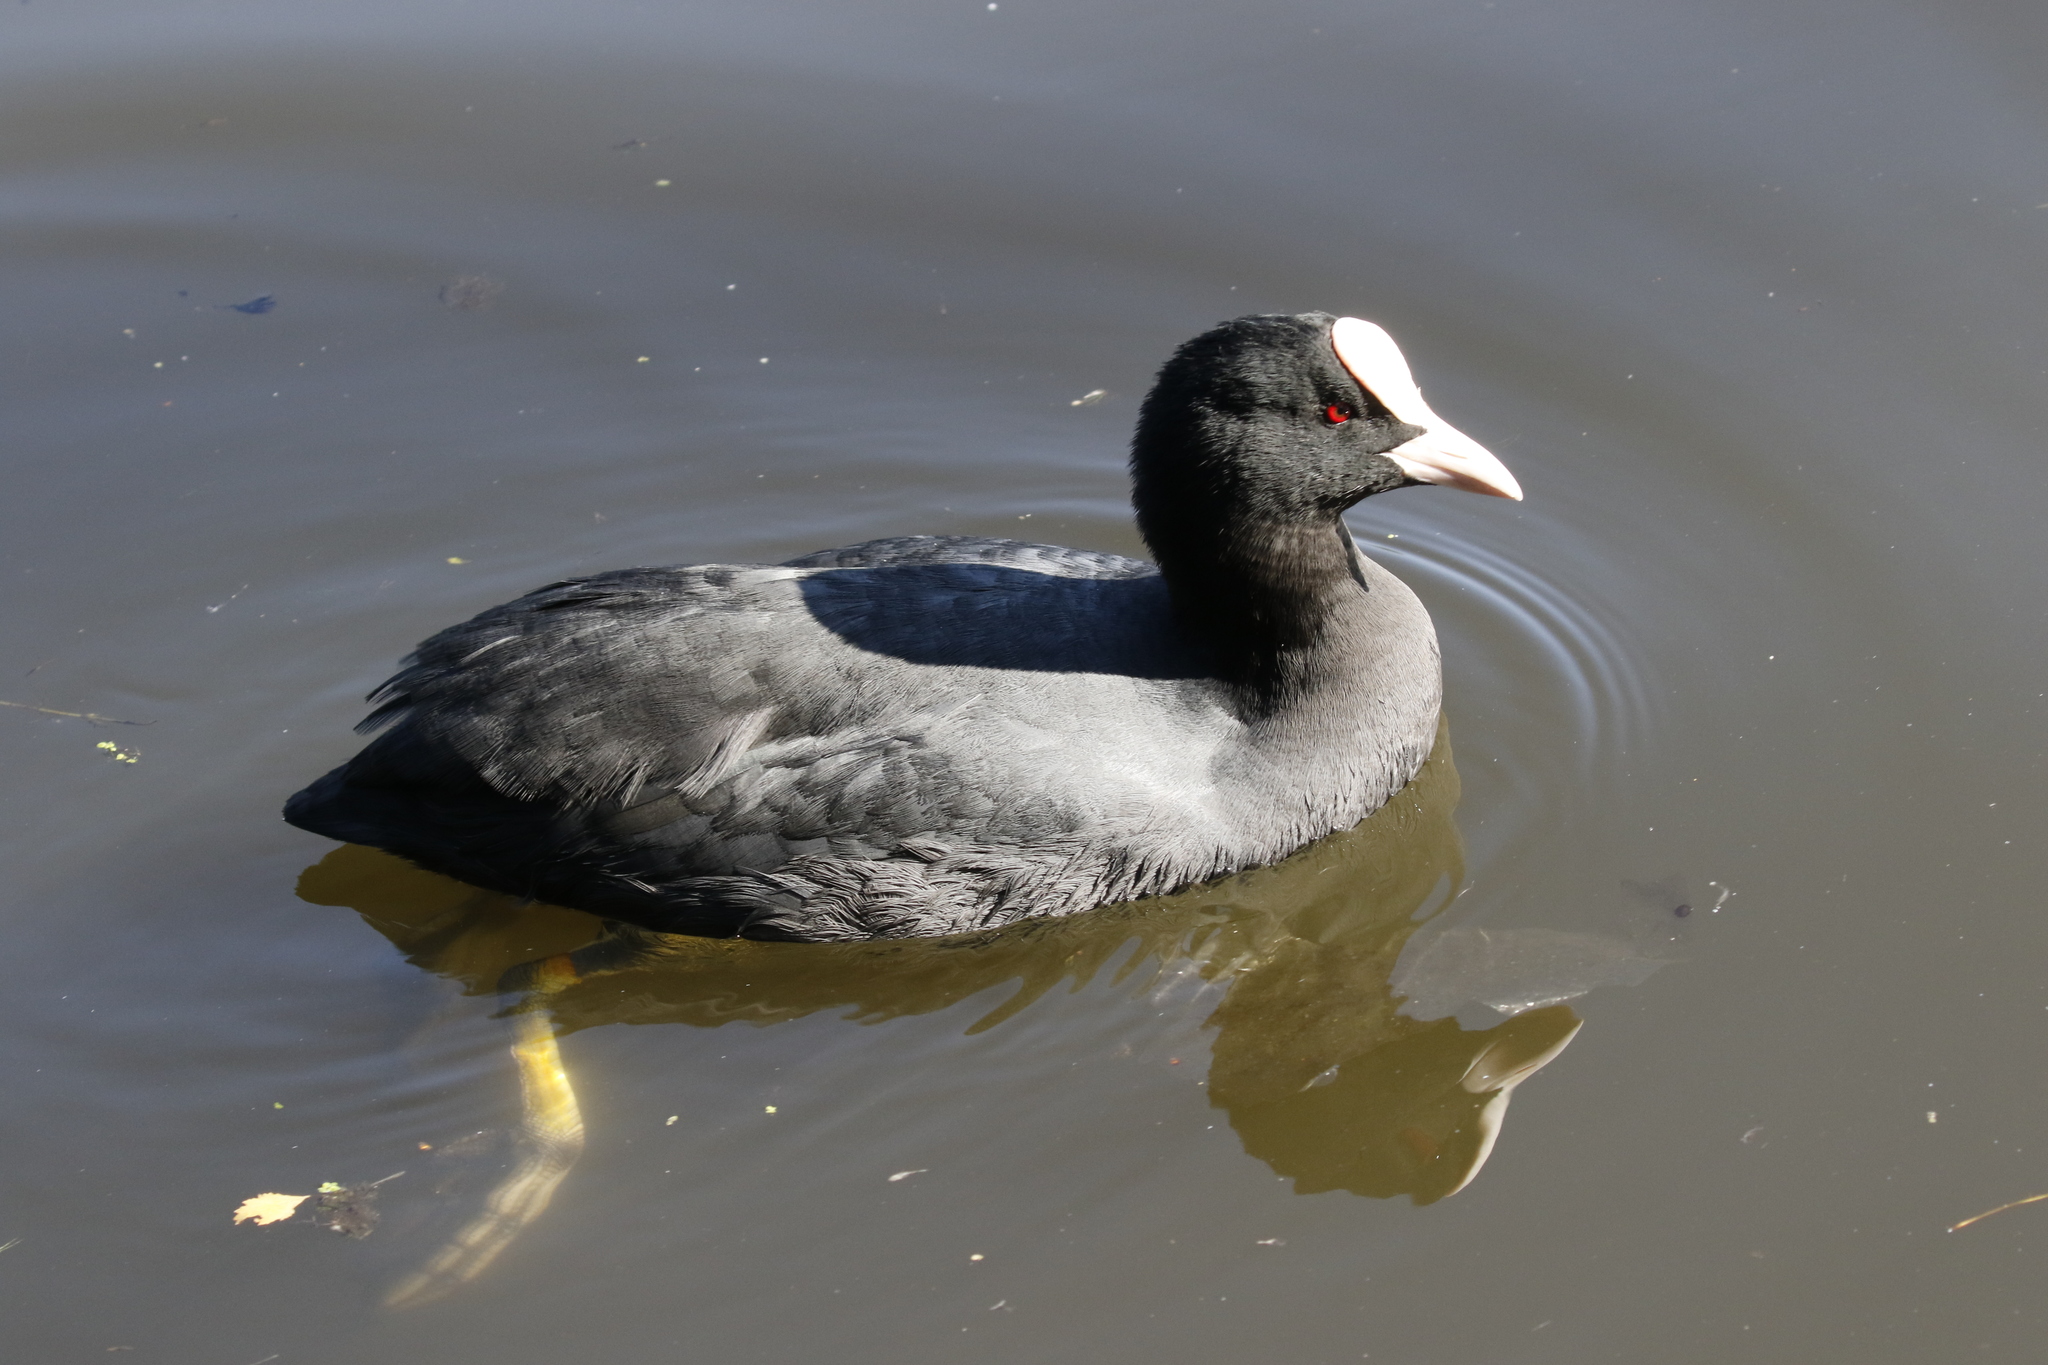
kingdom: Animalia
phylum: Chordata
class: Aves
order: Gruiformes
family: Rallidae
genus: Fulica
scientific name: Fulica atra
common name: Eurasian coot
